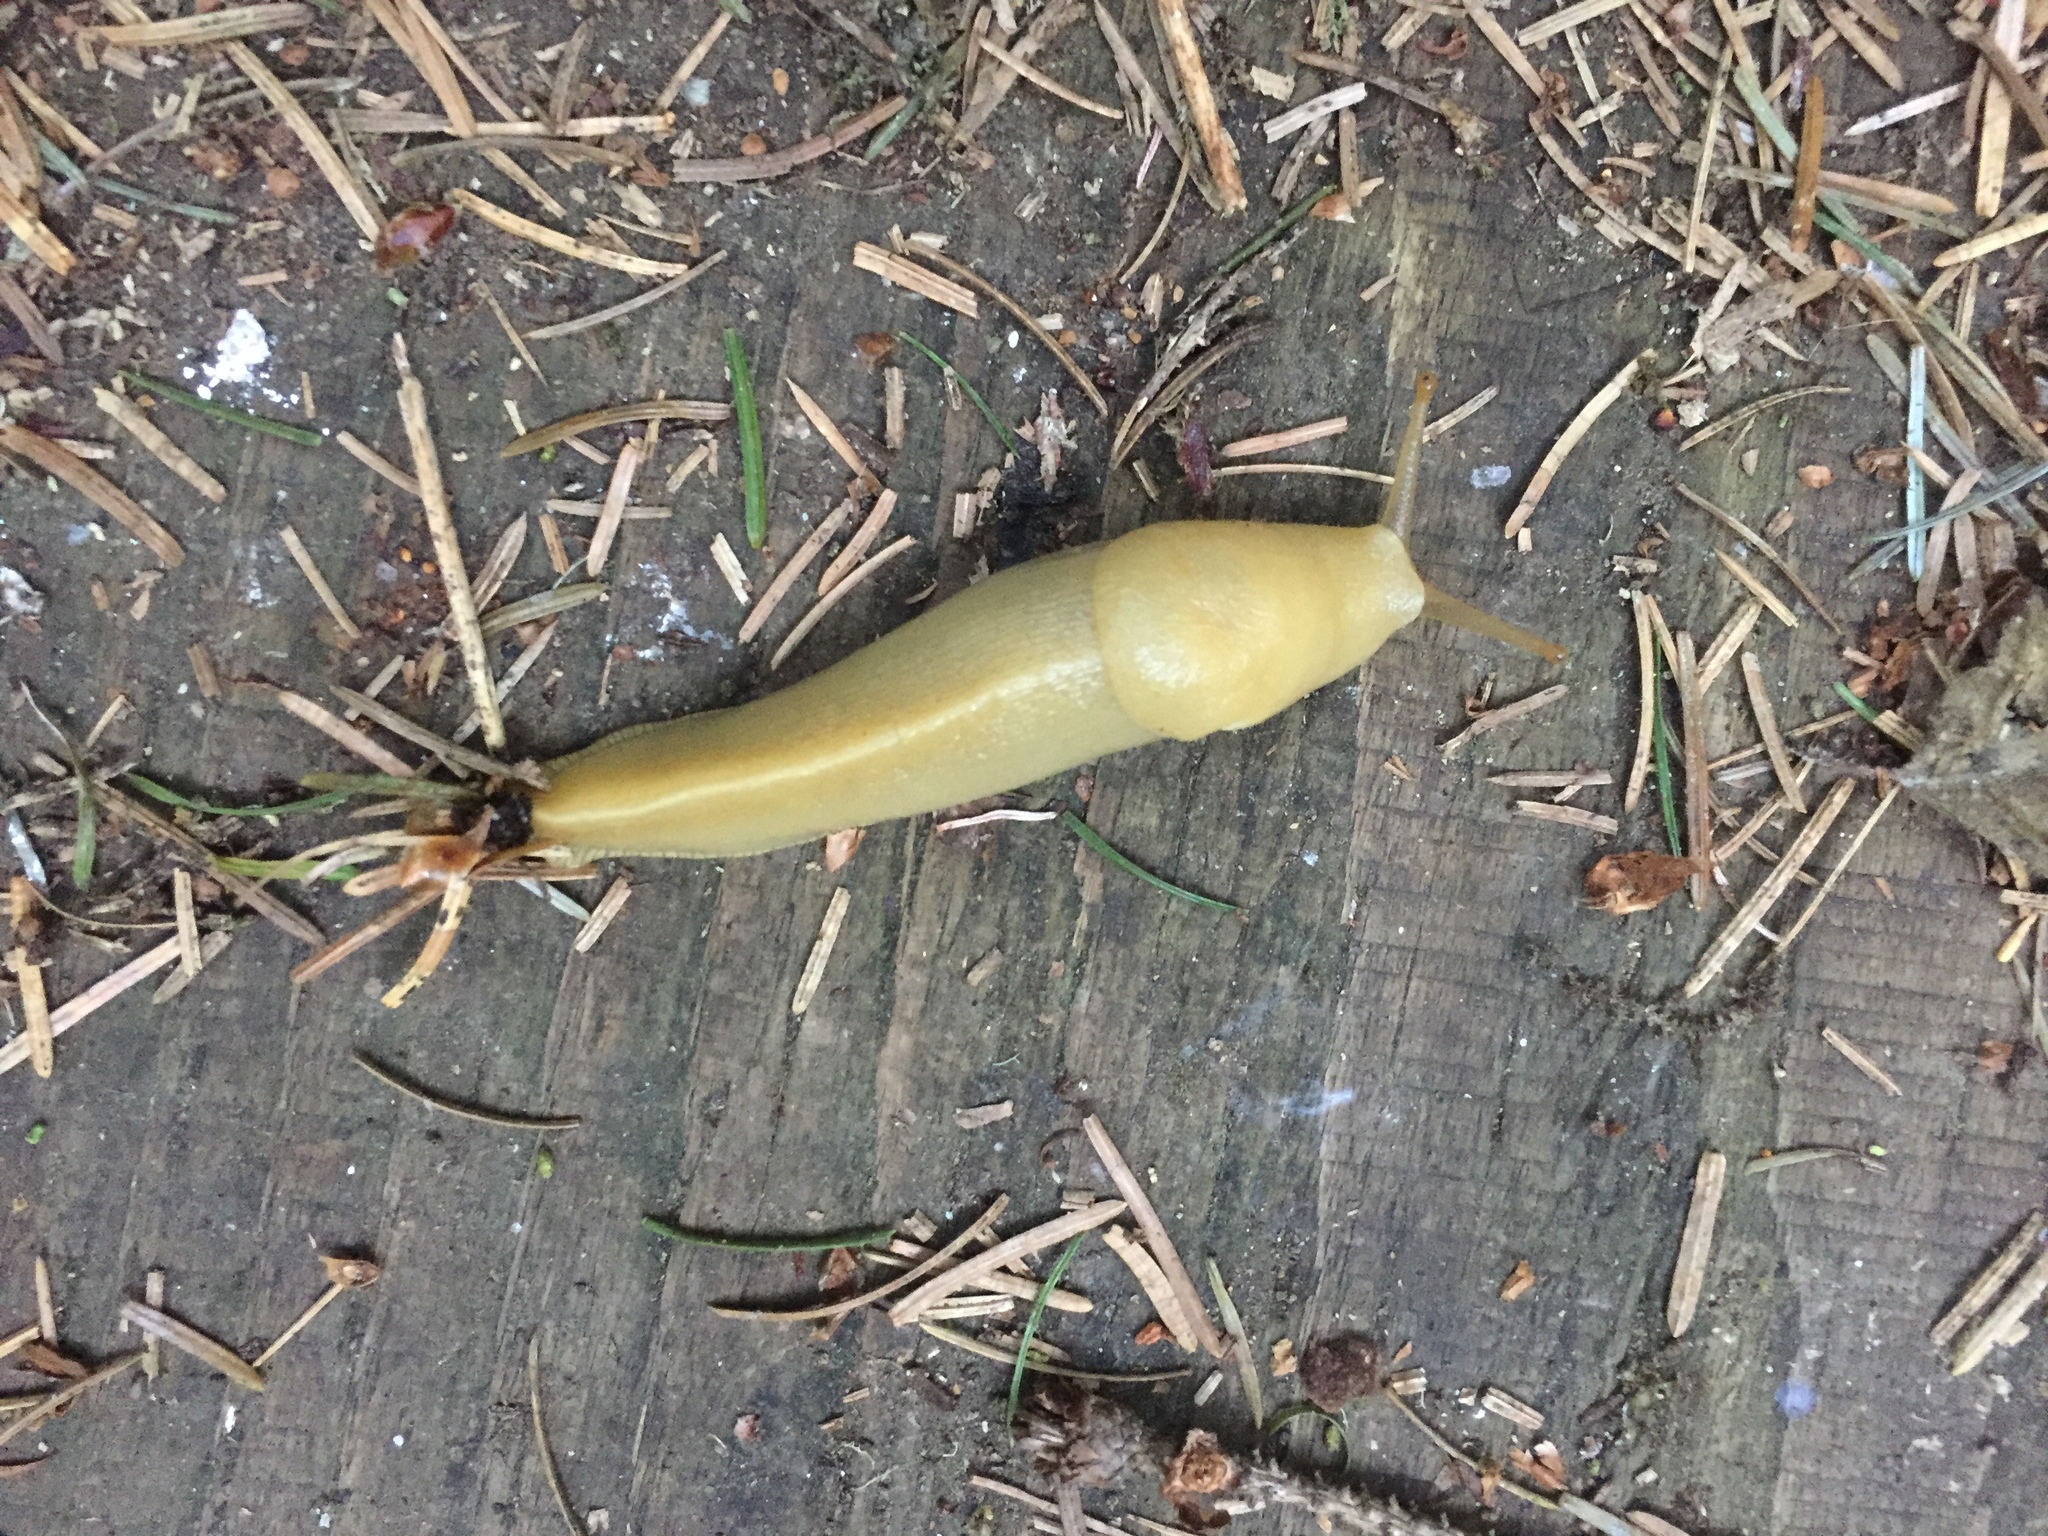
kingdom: Animalia
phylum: Mollusca
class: Gastropoda
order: Stylommatophora
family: Ariolimacidae
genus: Ariolimax
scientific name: Ariolimax columbianus
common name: Pacific banana slug
